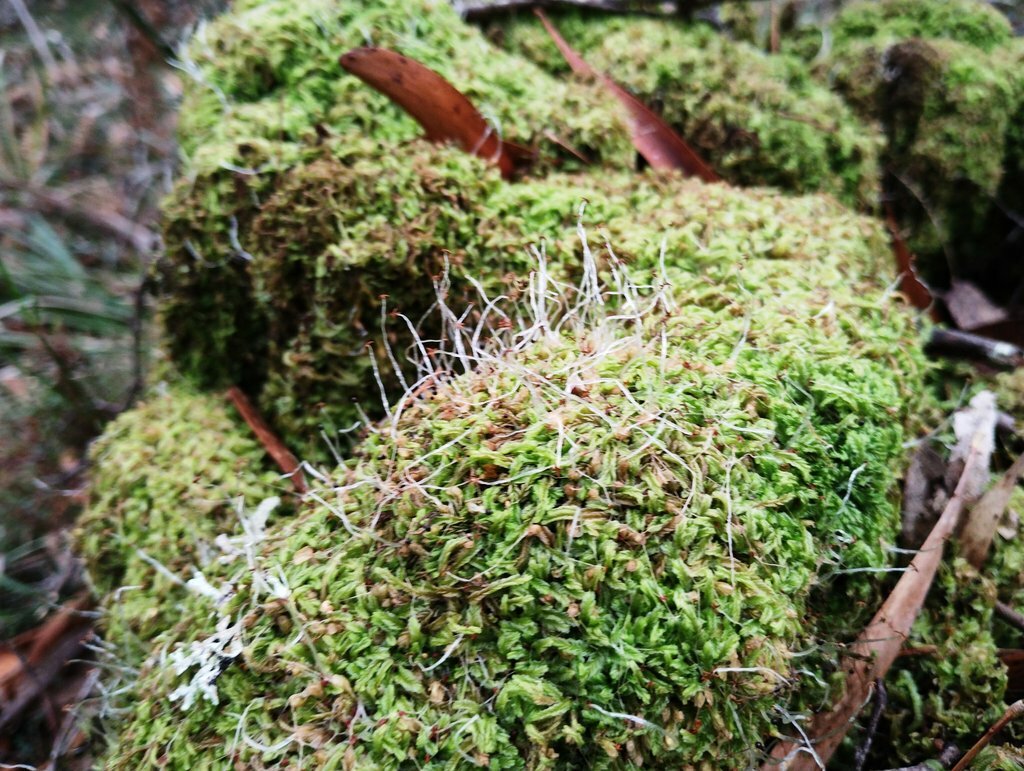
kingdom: Plantae
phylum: Marchantiophyta
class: Jungermanniopsida
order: Jungermanniales
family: Lophocoleaceae
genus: Lophocolea
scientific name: Lophocolea semiteres
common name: Southern crestwort
